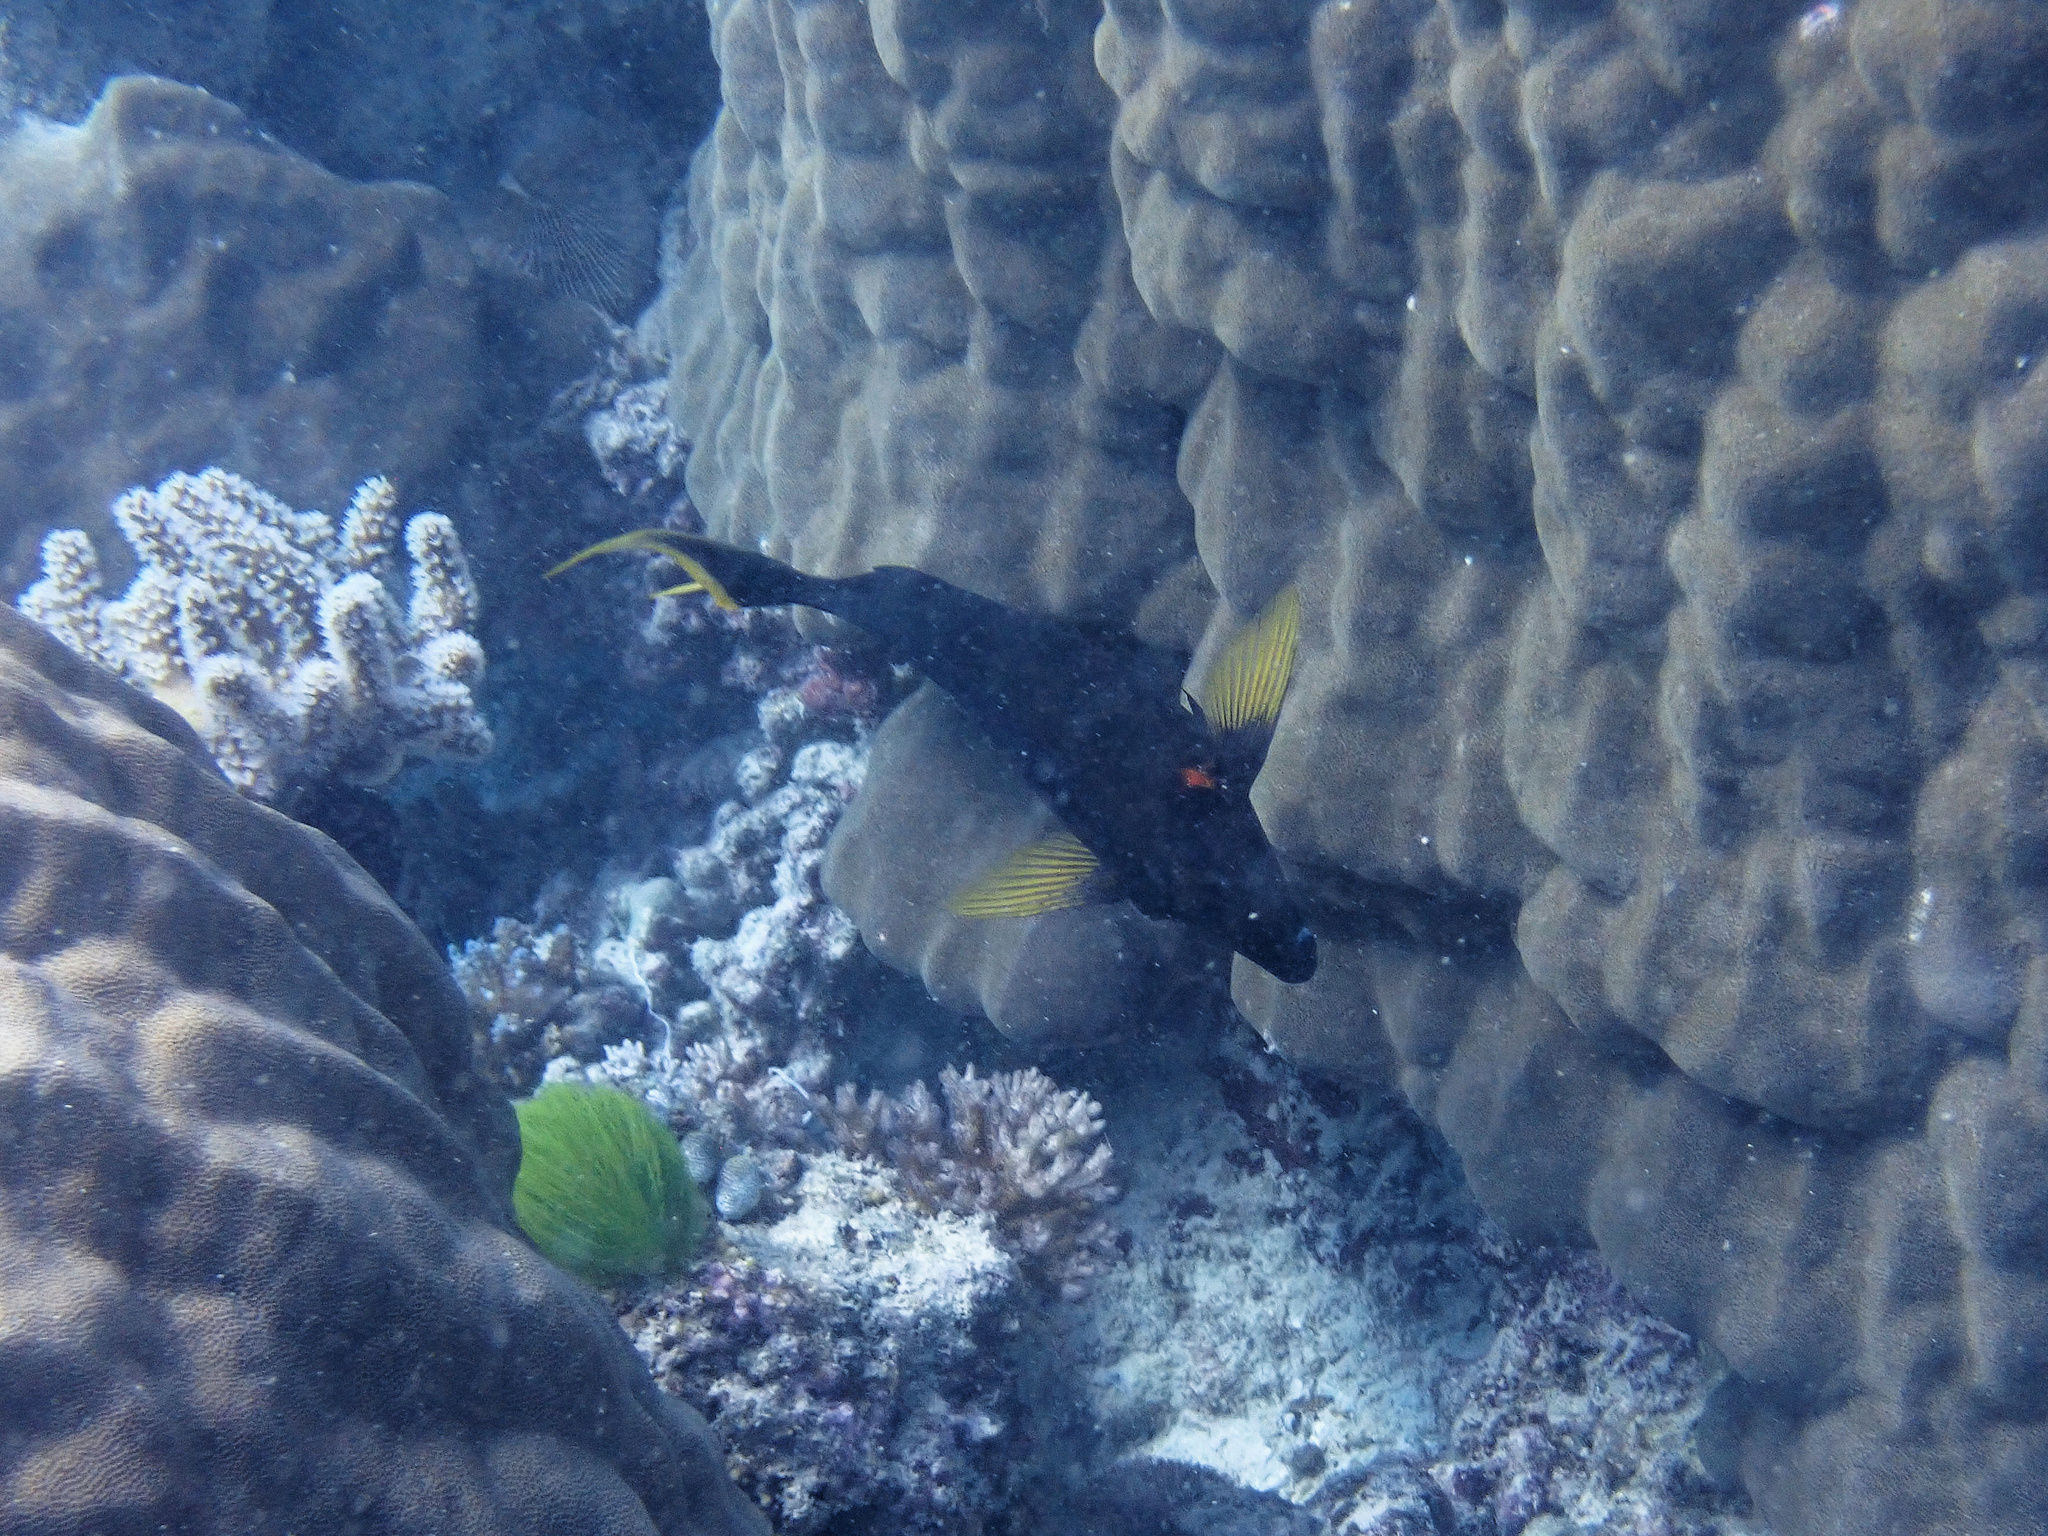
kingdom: Animalia
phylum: Chordata
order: Perciformes
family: Acanthuridae
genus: Acanthurus
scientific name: Acanthurus pyroferus
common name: Chocolate surgeonfish
